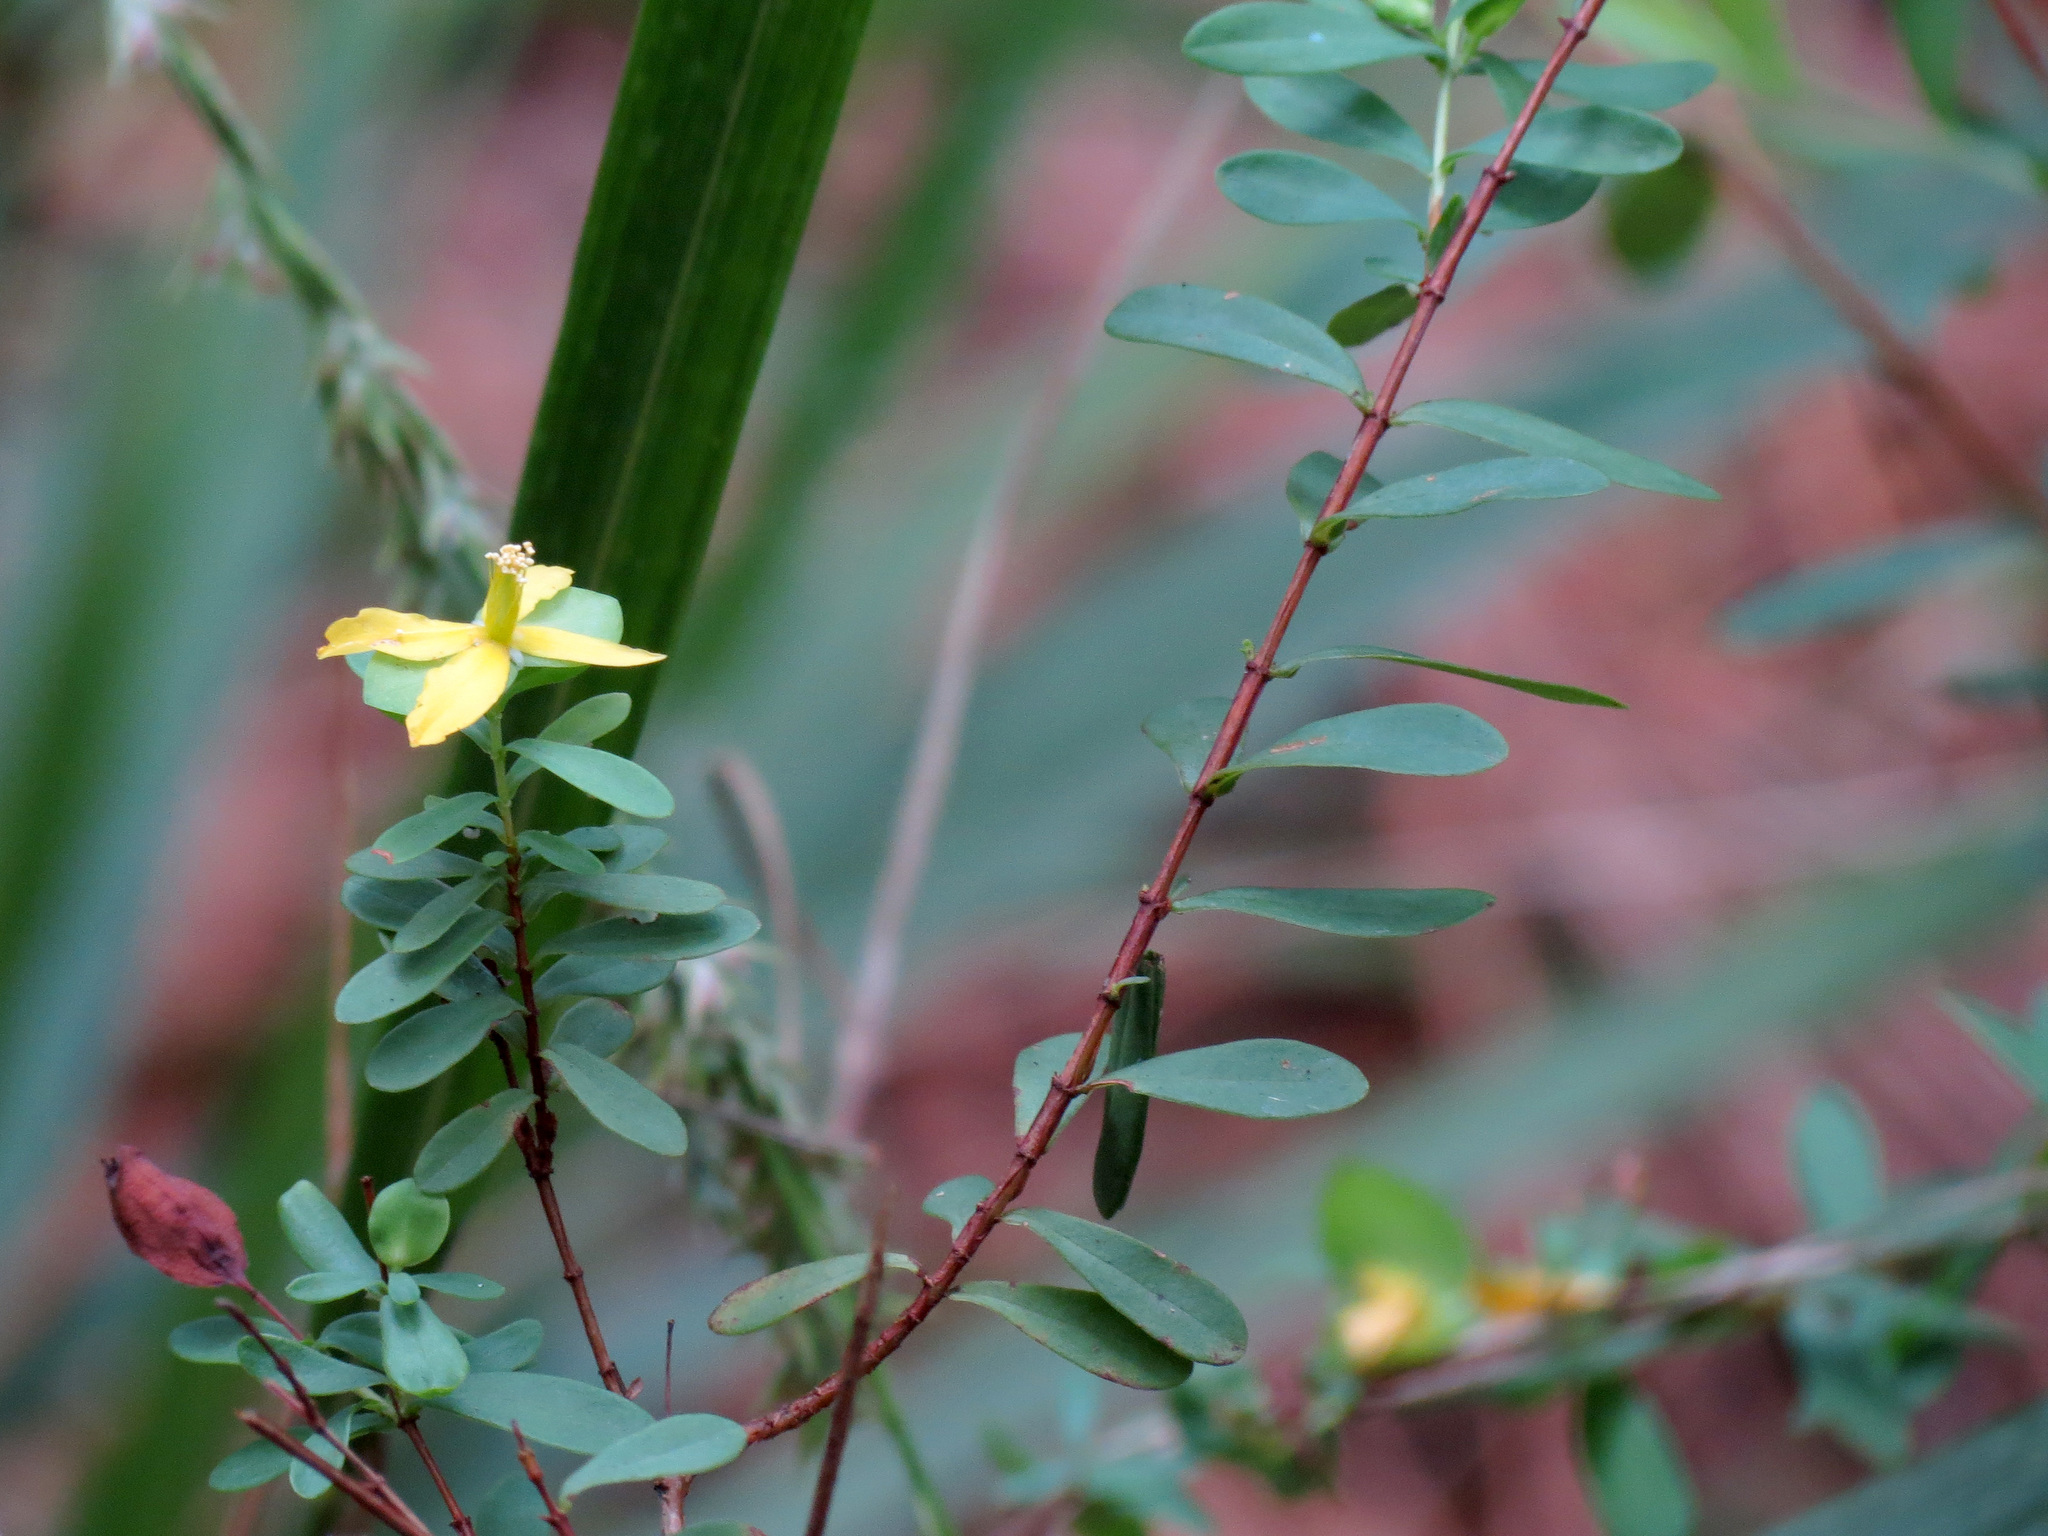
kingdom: Plantae
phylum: Tracheophyta
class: Magnoliopsida
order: Malpighiales
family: Hypericaceae
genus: Hypericum
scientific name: Hypericum hypericoides
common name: St. andrew's cross
